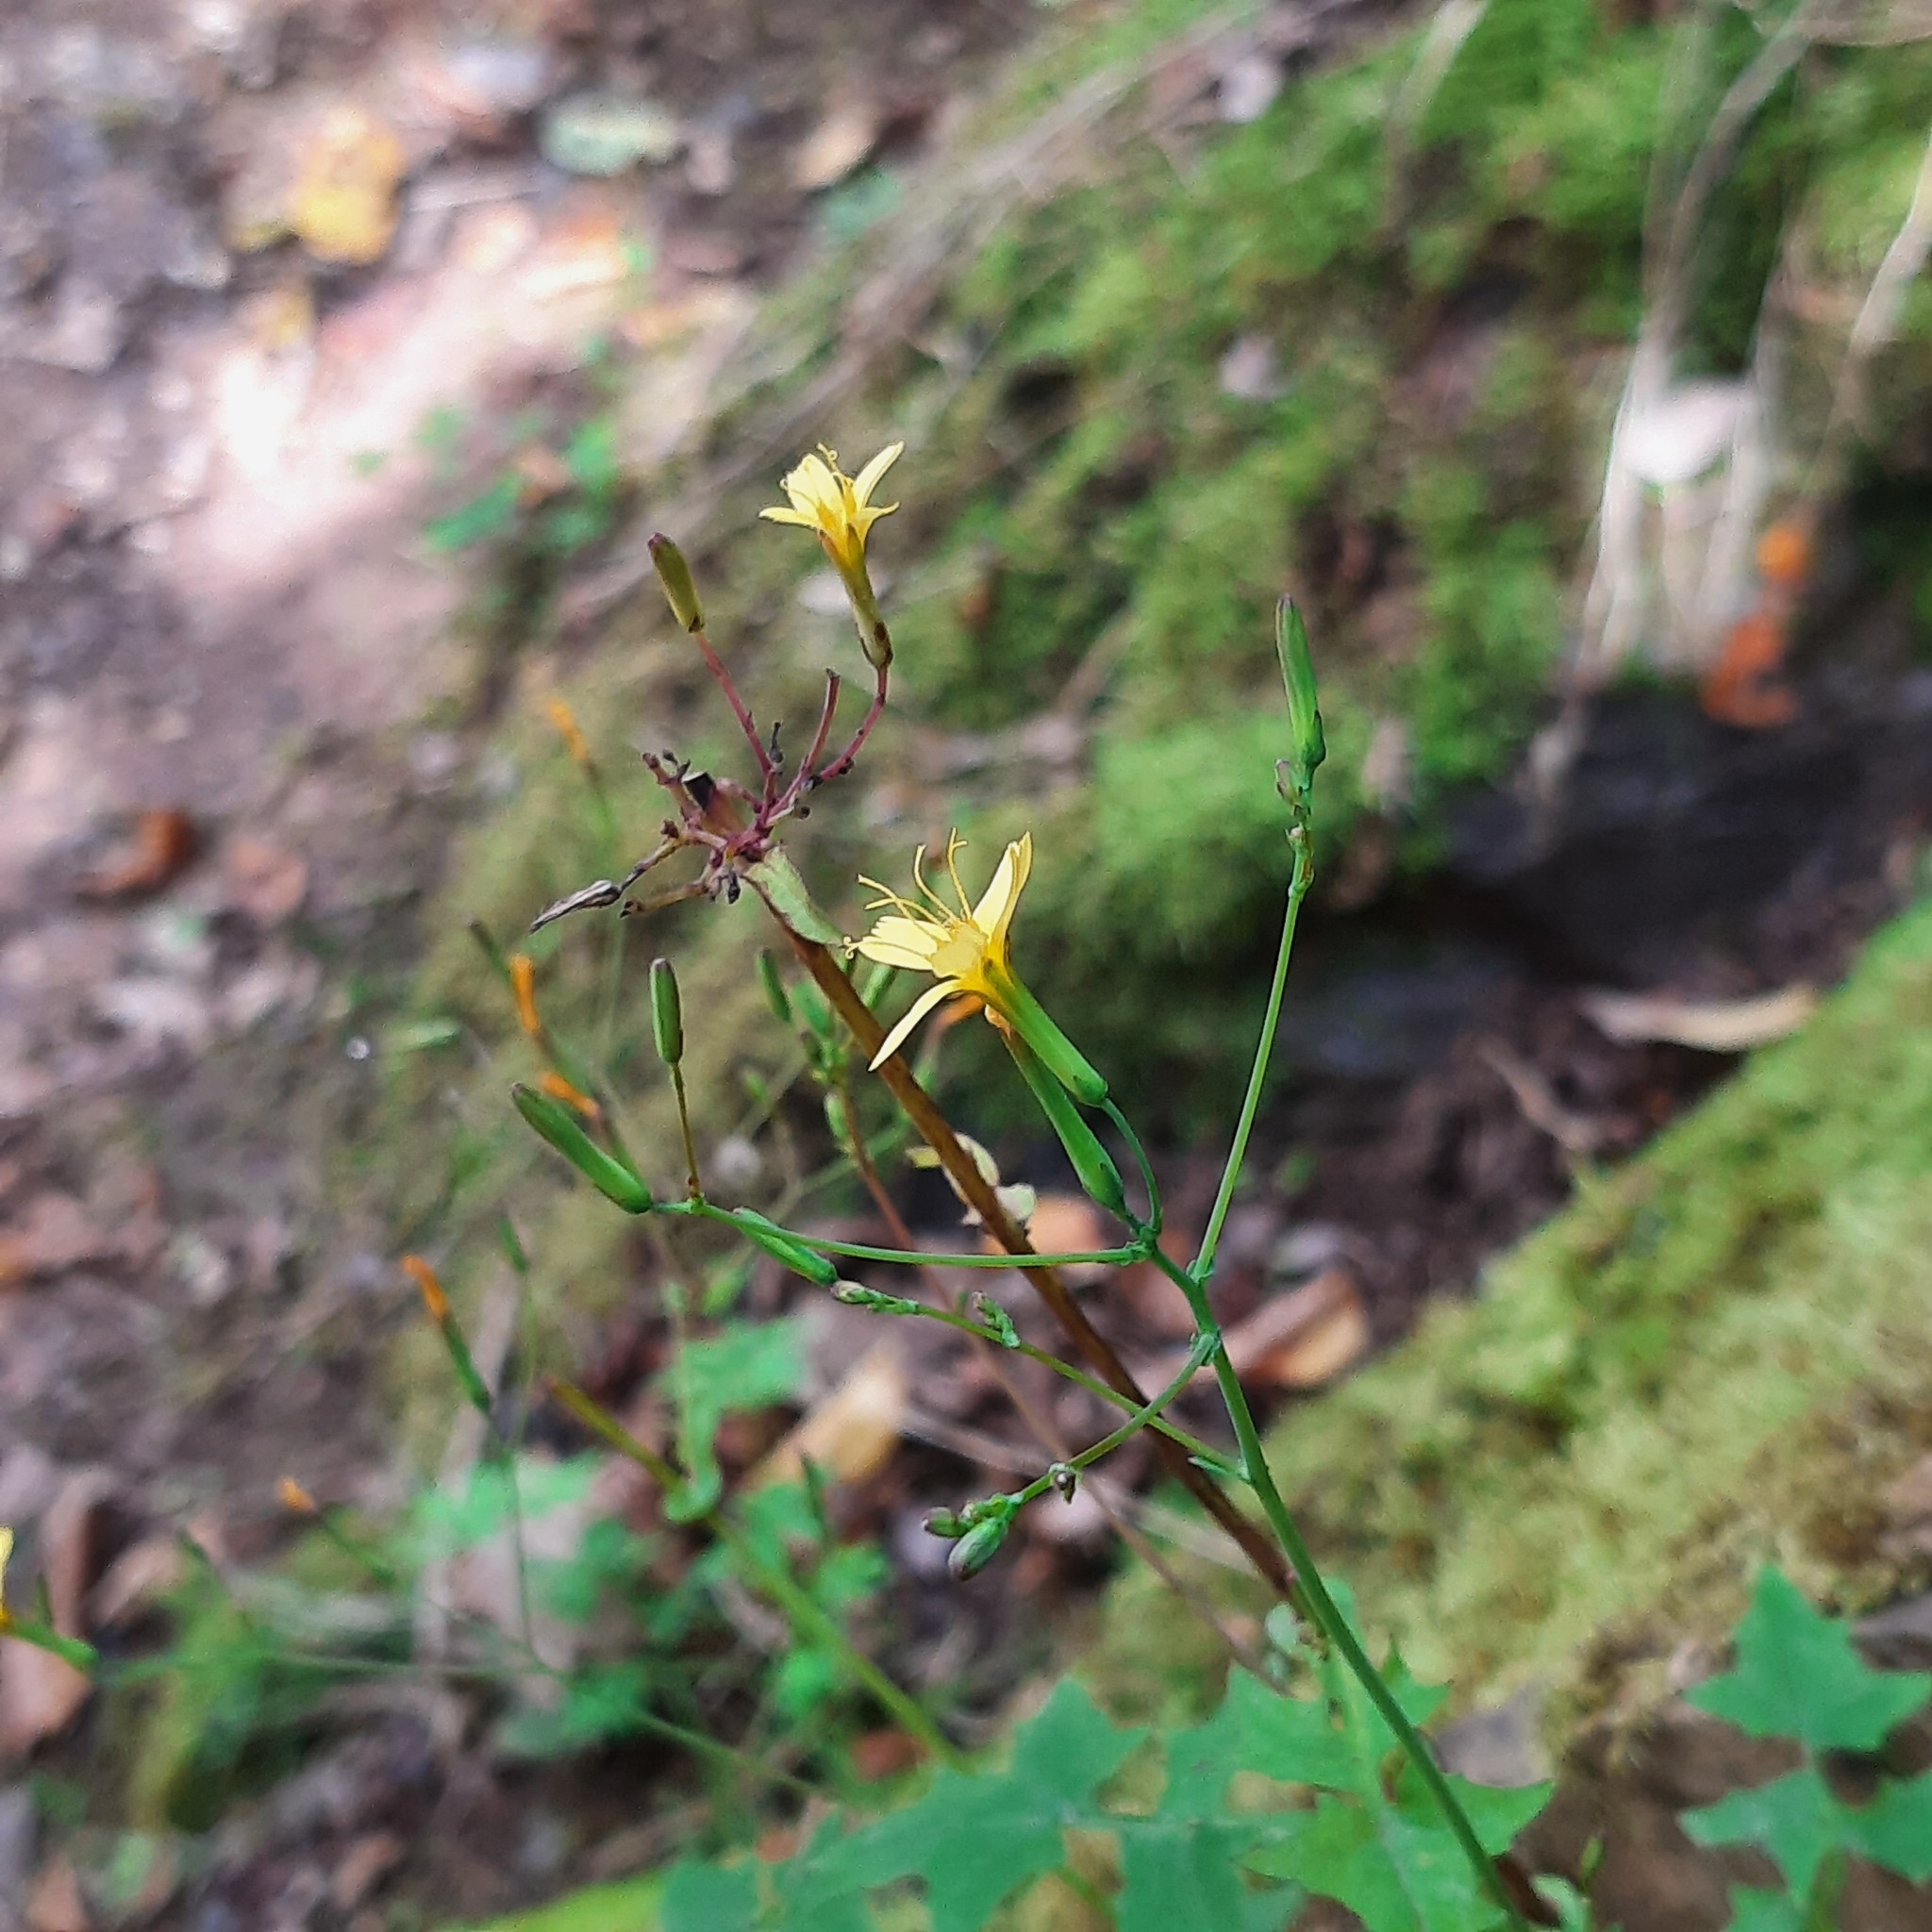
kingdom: Plantae
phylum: Tracheophyta
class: Magnoliopsida
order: Asterales
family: Asteraceae
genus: Mycelis
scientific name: Mycelis muralis
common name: Wall lettuce
